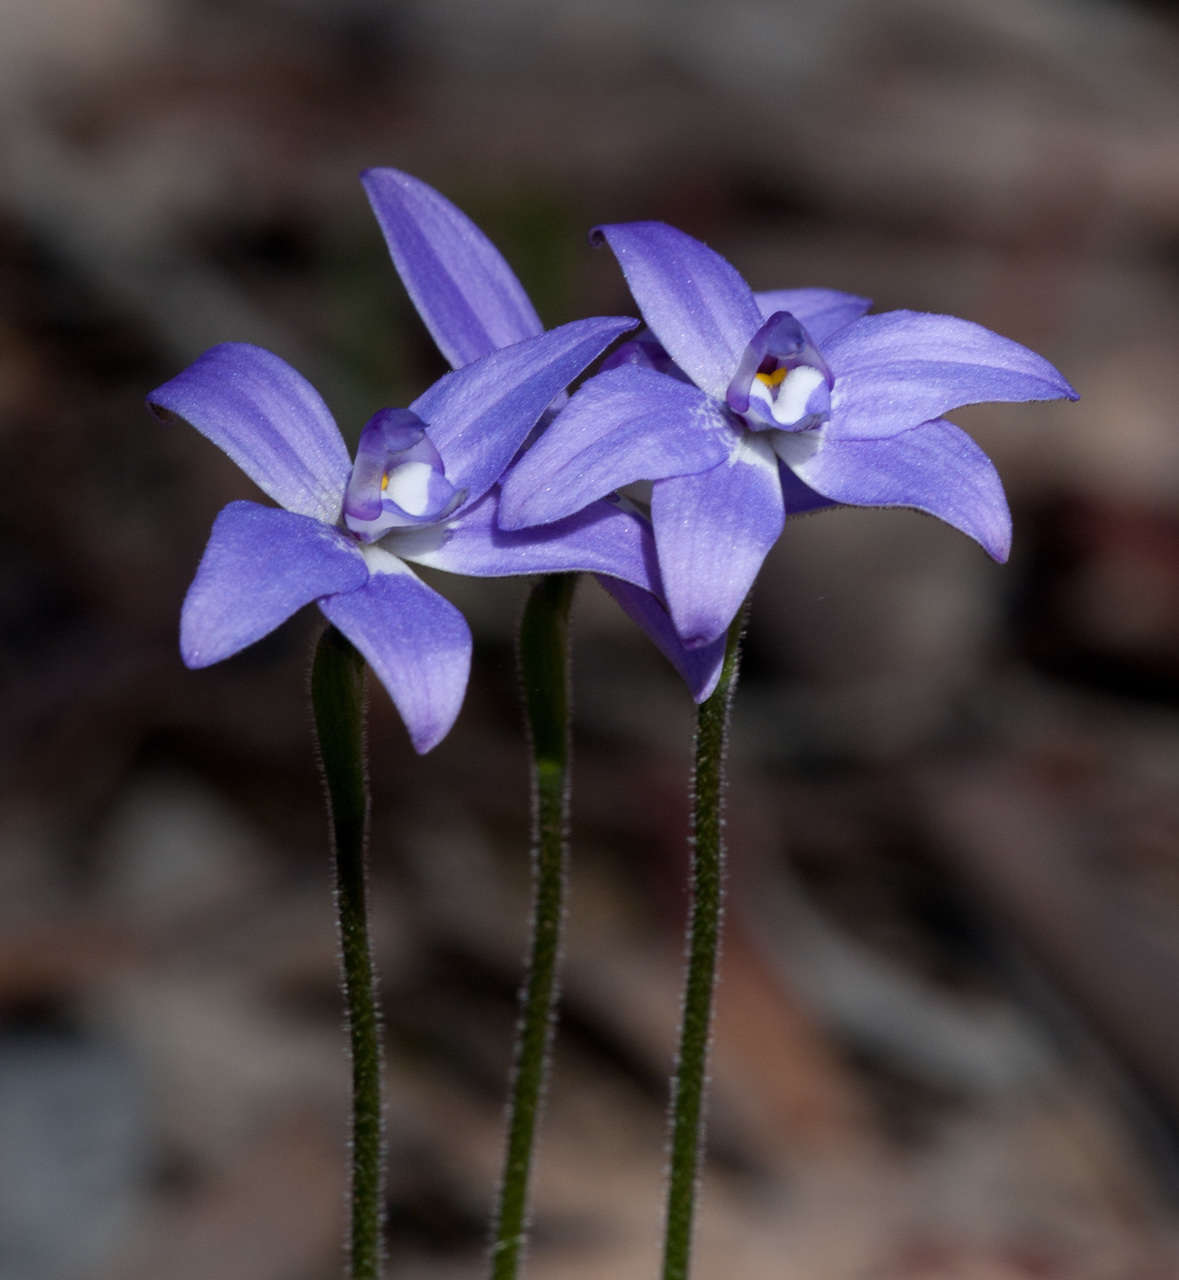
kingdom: Plantae
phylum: Tracheophyta
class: Liliopsida
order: Asparagales
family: Orchidaceae
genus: Caladenia
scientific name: Caladenia major
